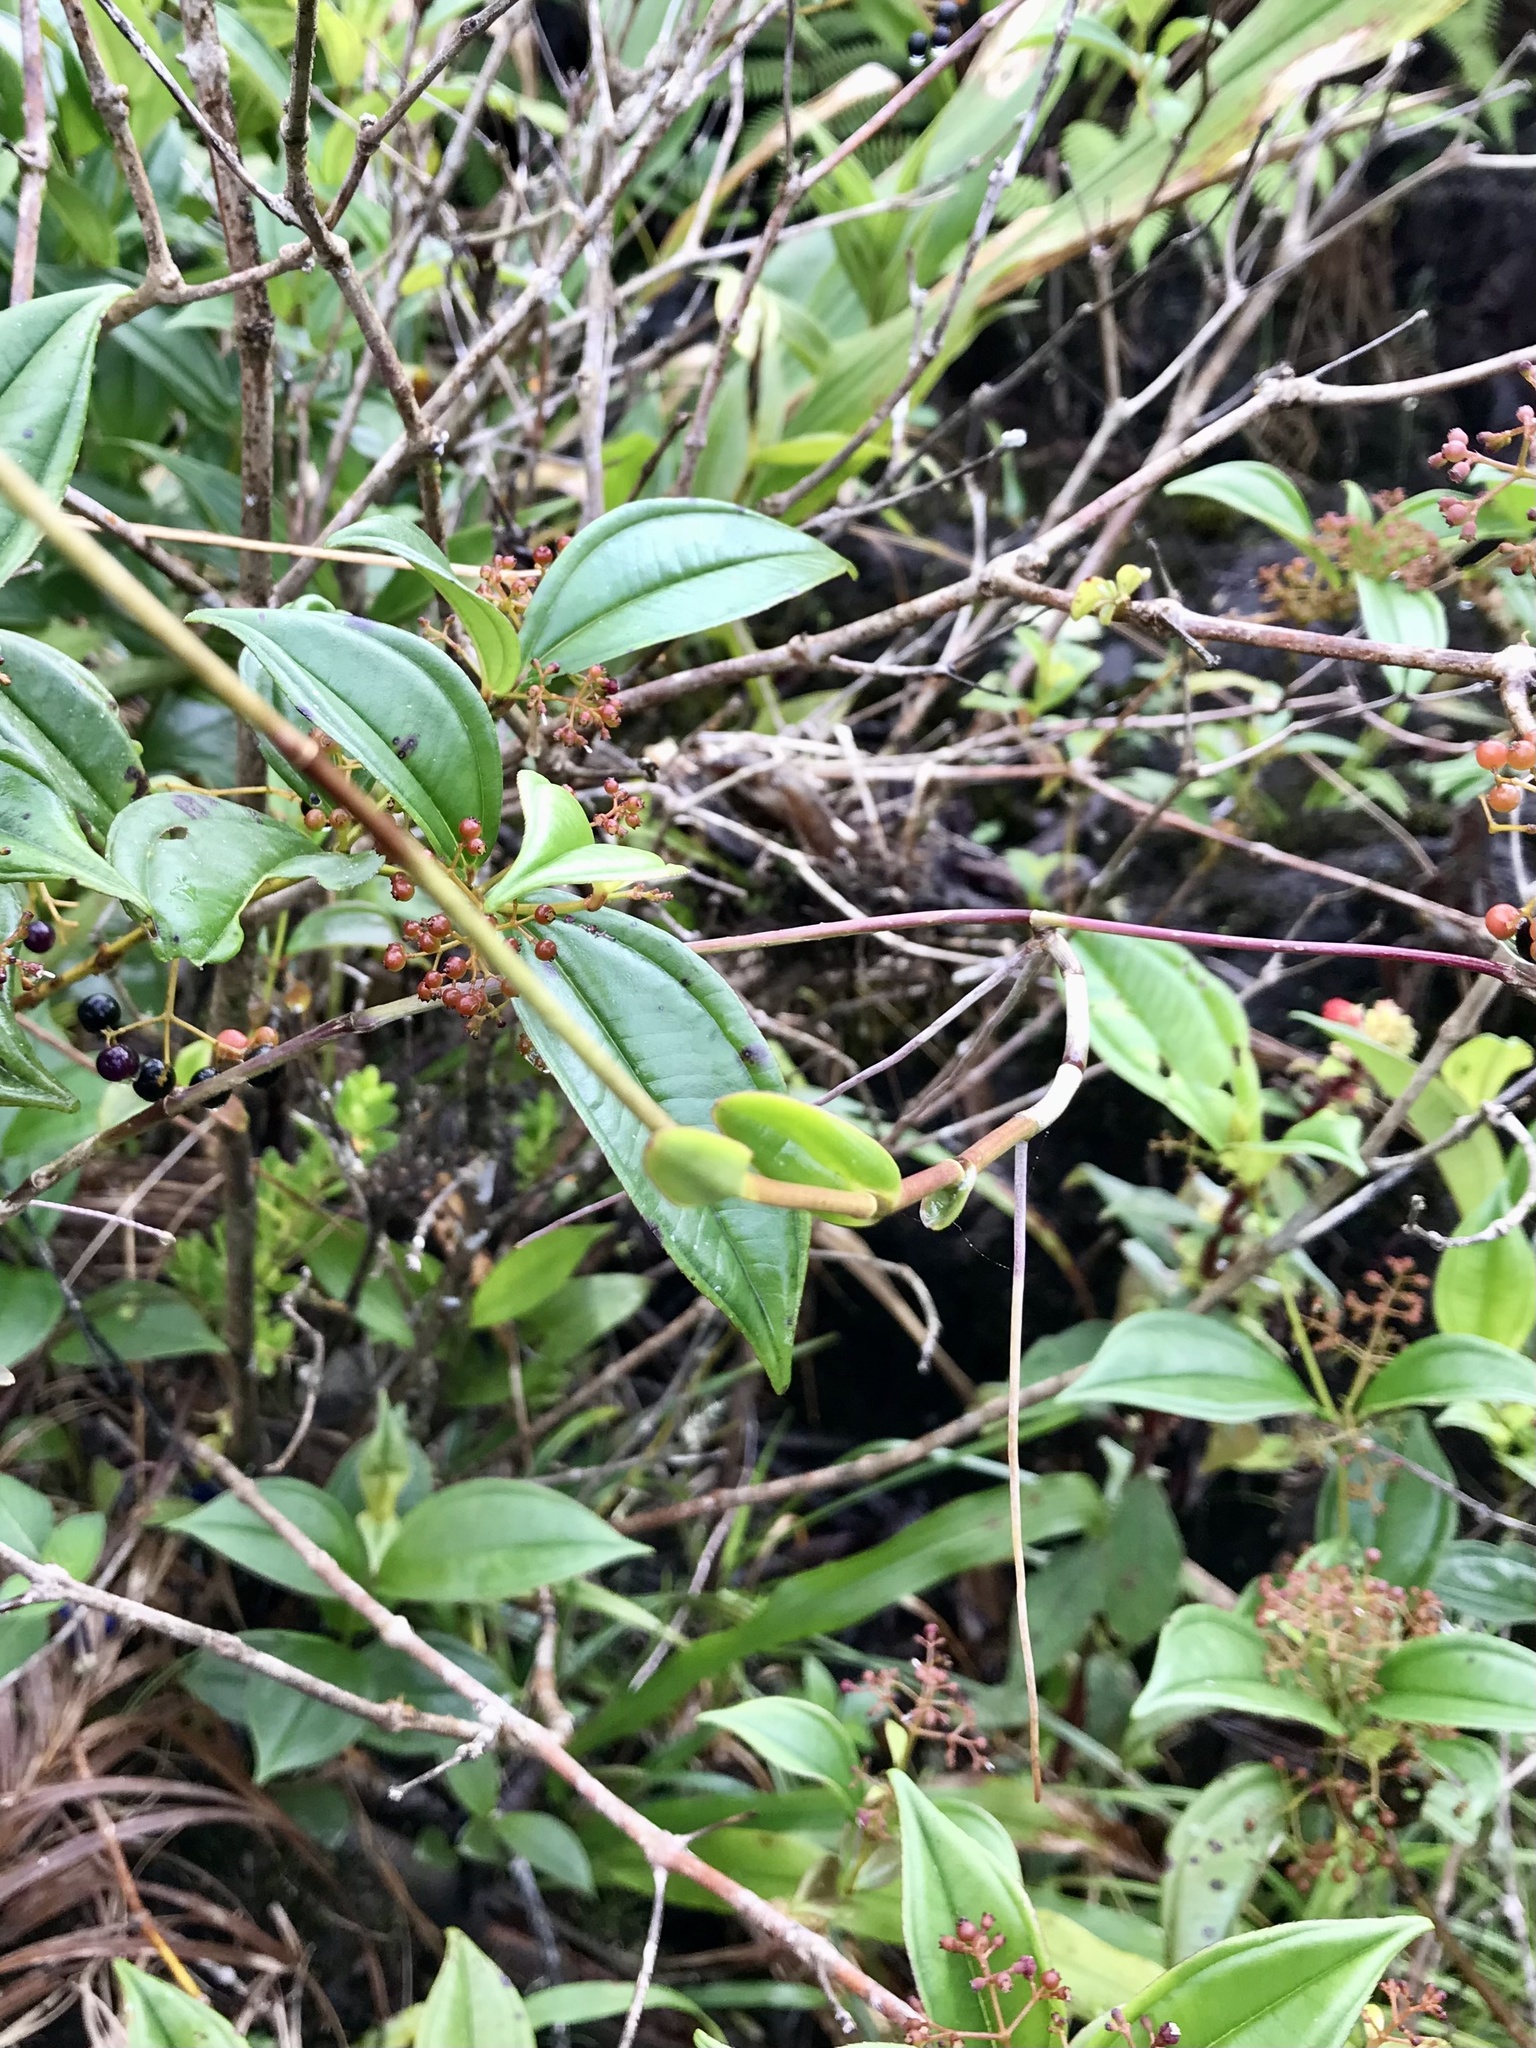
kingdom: Plantae
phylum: Tracheophyta
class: Liliopsida
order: Asparagales
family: Orchidaceae
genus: Epidendrum
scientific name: Epidendrum radicans
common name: Fire star orchid
